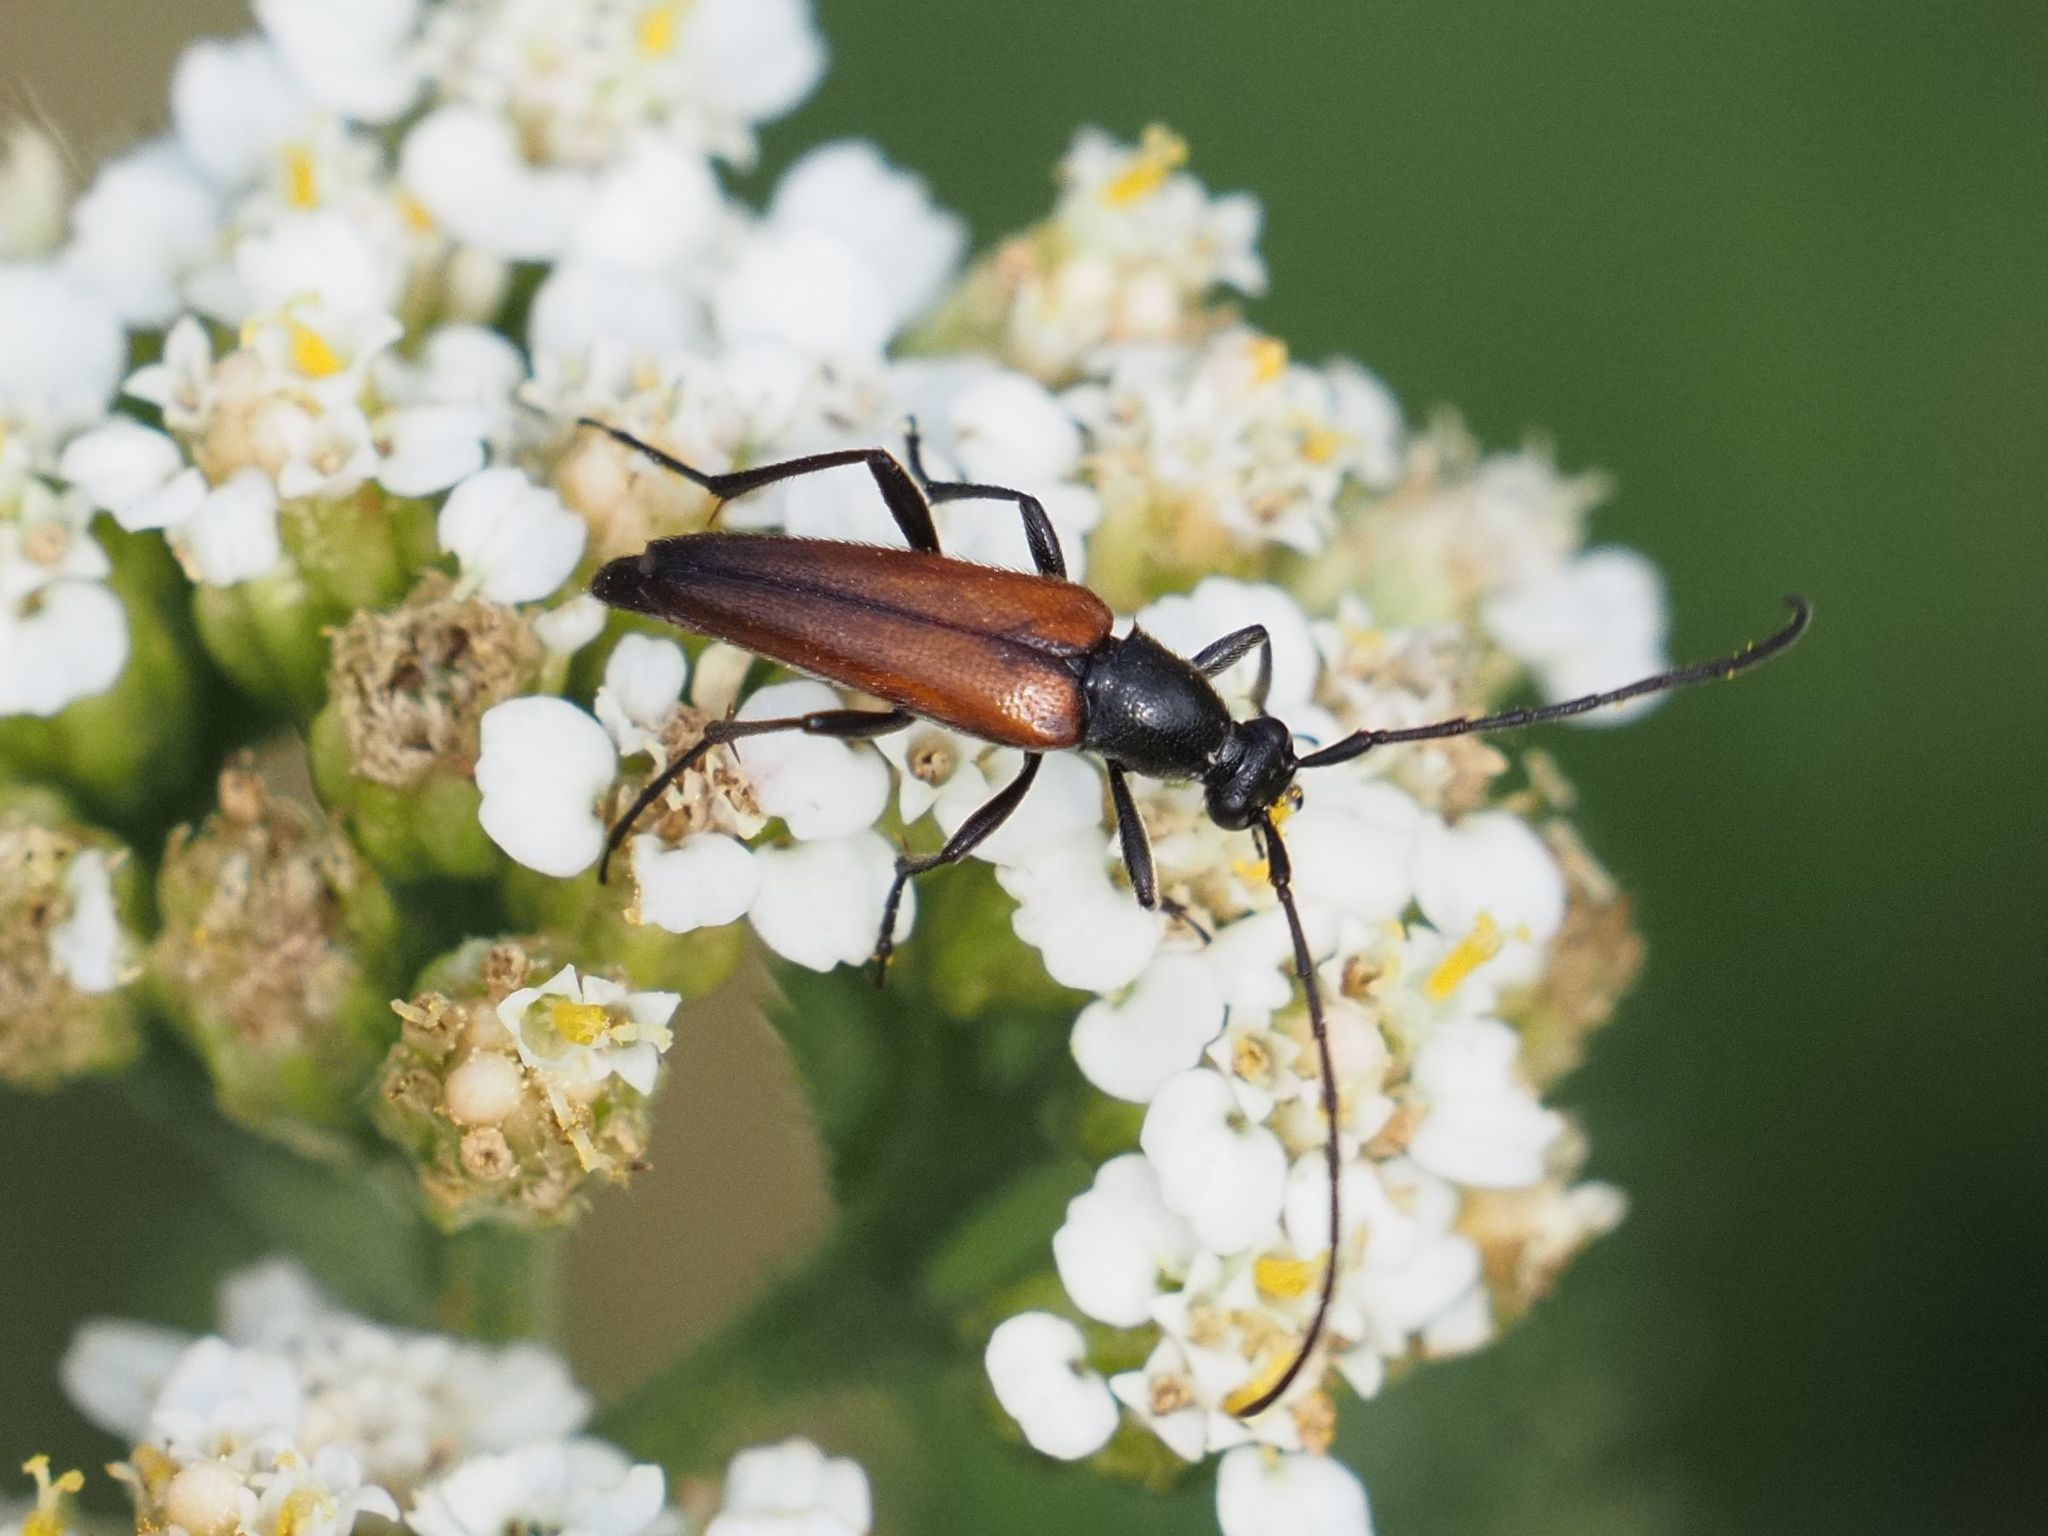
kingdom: Animalia
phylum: Arthropoda
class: Insecta
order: Coleoptera
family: Cerambycidae
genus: Stenurella
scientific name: Stenurella melanura
